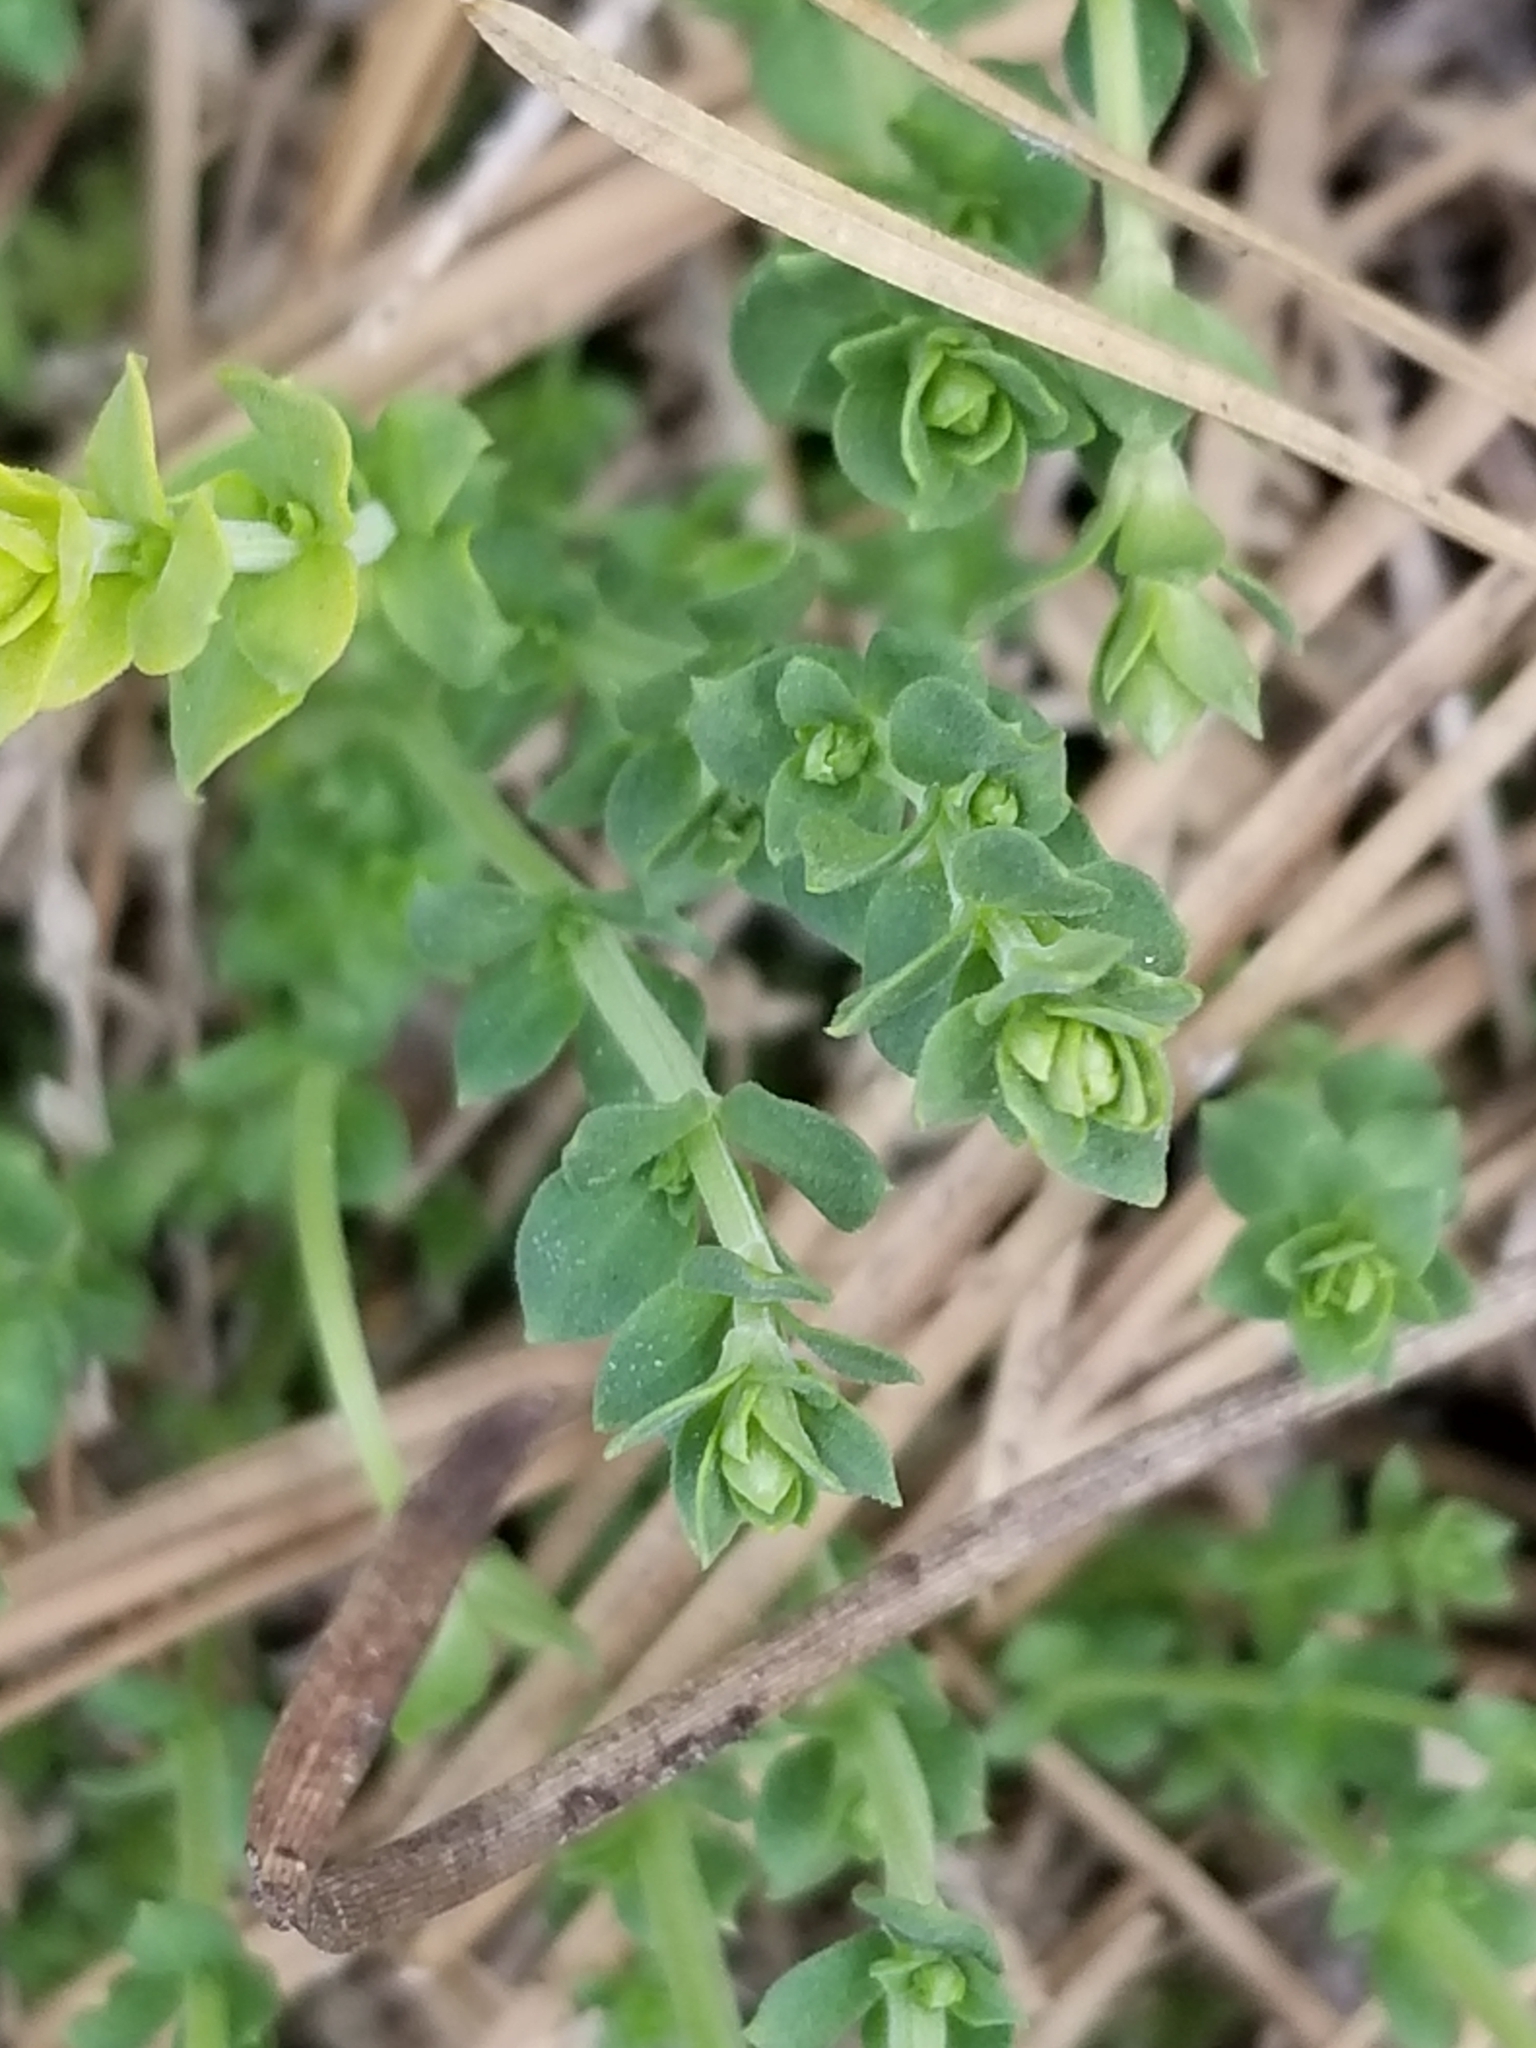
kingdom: Plantae
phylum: Tracheophyta
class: Magnoliopsida
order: Ericales
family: Primulaceae
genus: Lysimachia
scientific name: Lysimachia arvensis
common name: Scarlet pimpernel
